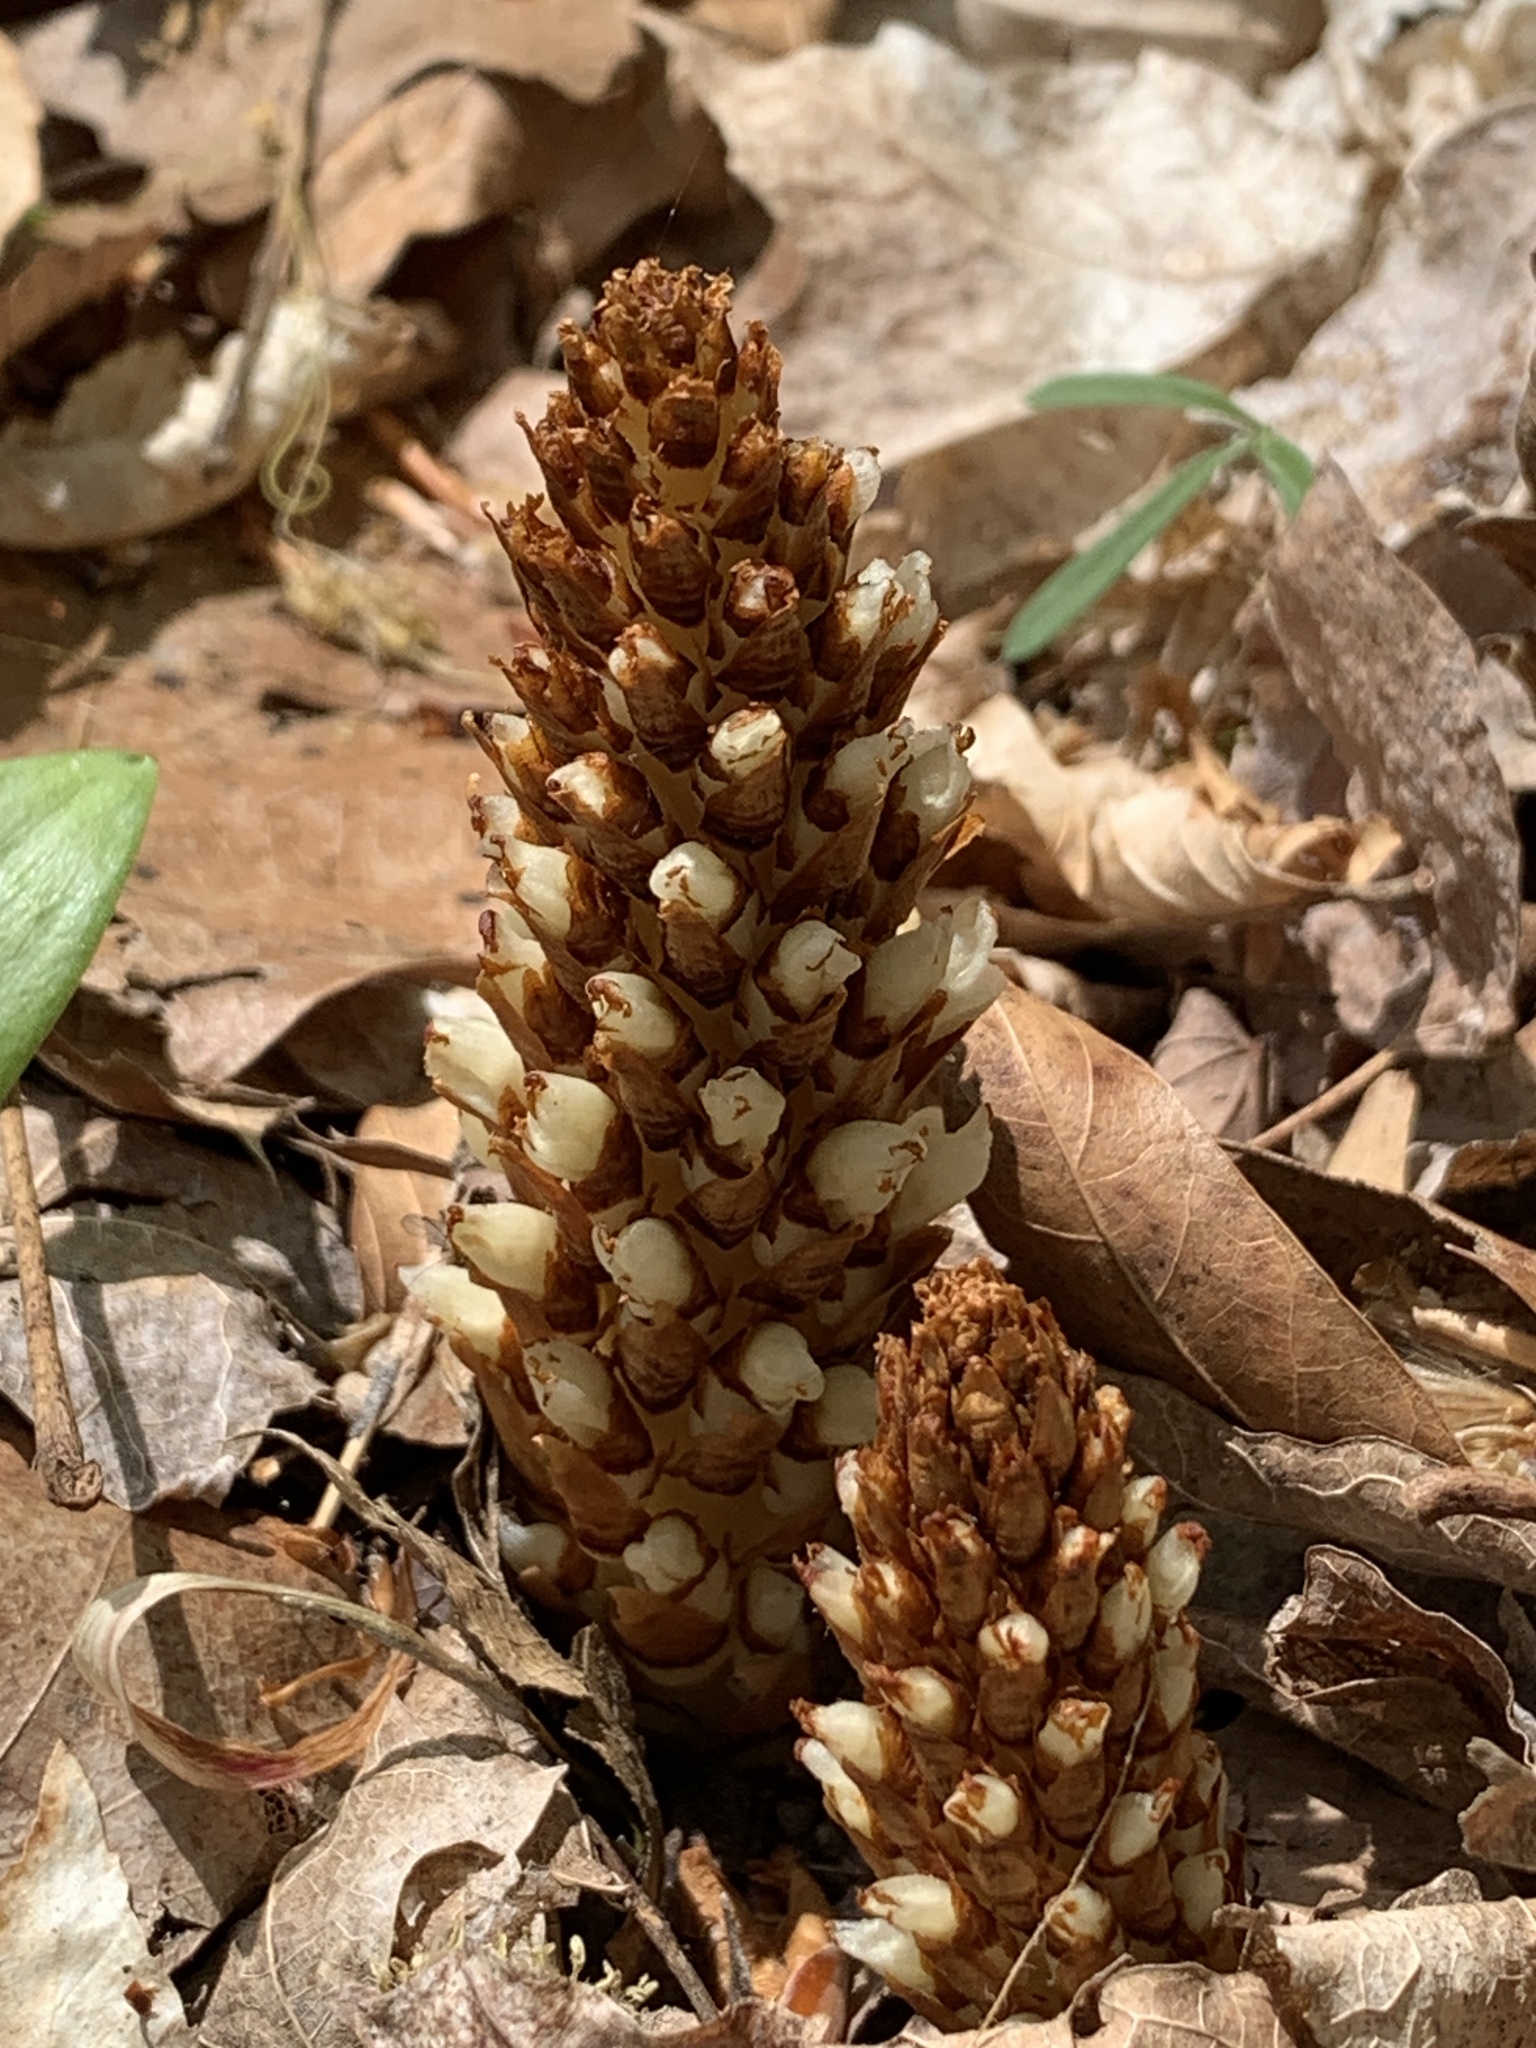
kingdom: Plantae
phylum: Tracheophyta
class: Magnoliopsida
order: Lamiales
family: Orobanchaceae
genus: Conopholis
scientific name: Conopholis americana
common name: American cancer-root
